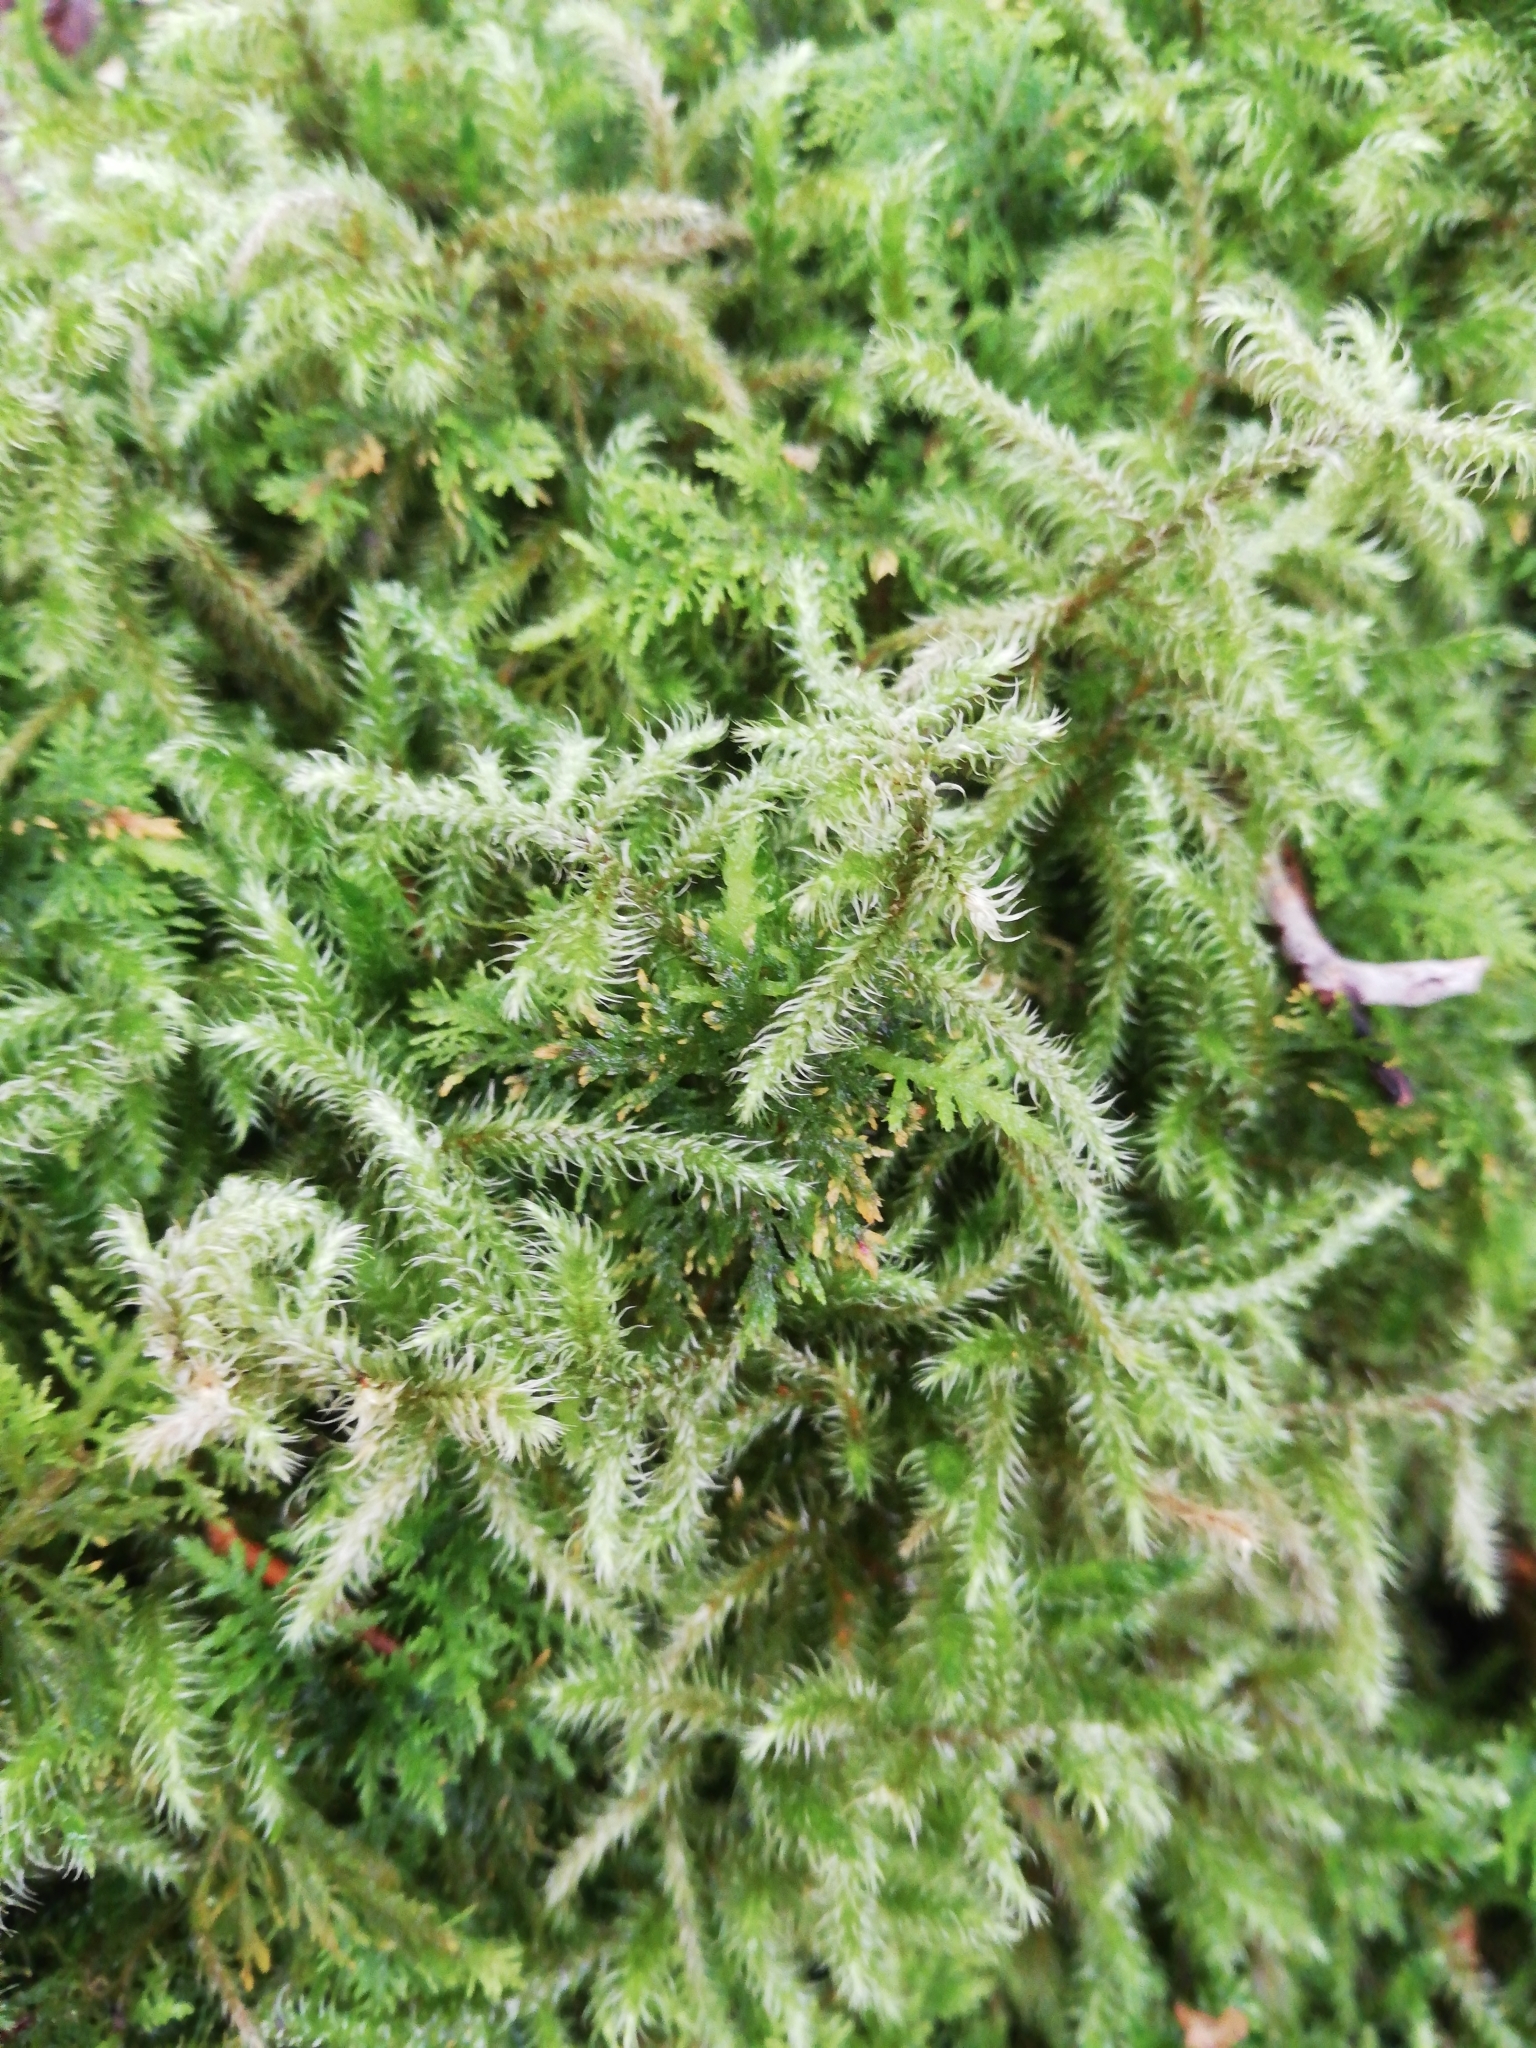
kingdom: Plantae
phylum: Bryophyta
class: Bryopsida
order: Hypnales
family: Hylocomiaceae
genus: Rhytidiadelphus
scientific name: Rhytidiadelphus loreus
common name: Lanky moss
